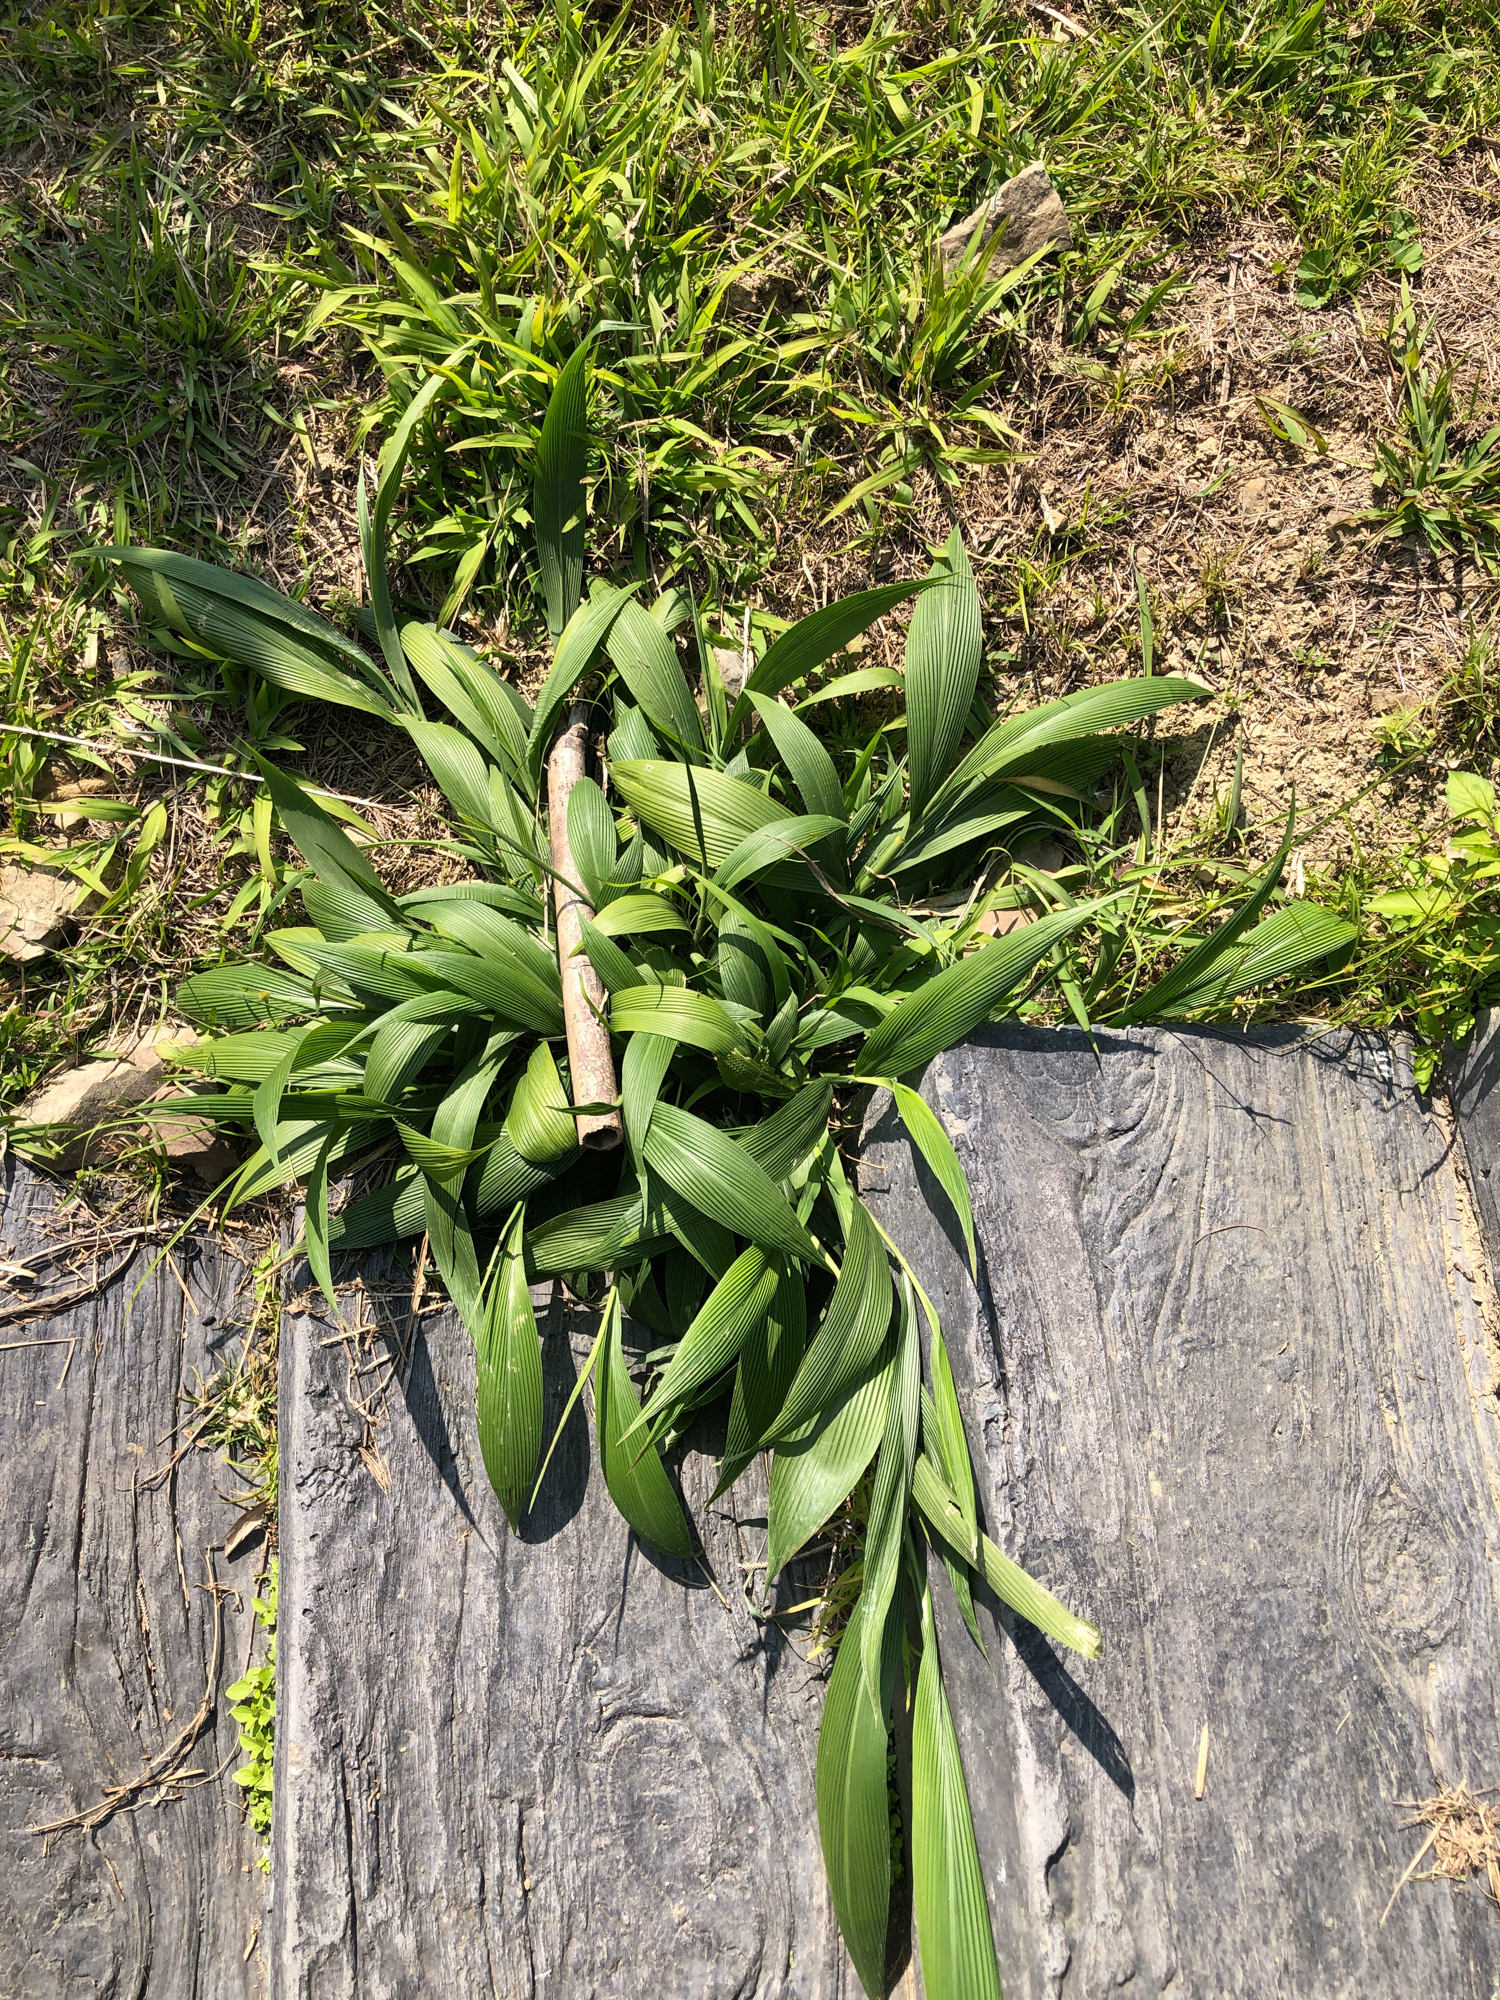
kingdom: Plantae
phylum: Tracheophyta
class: Liliopsida
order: Poales
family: Poaceae
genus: Setaria
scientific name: Setaria palmifolia
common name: Broadleaved bristlegrass
